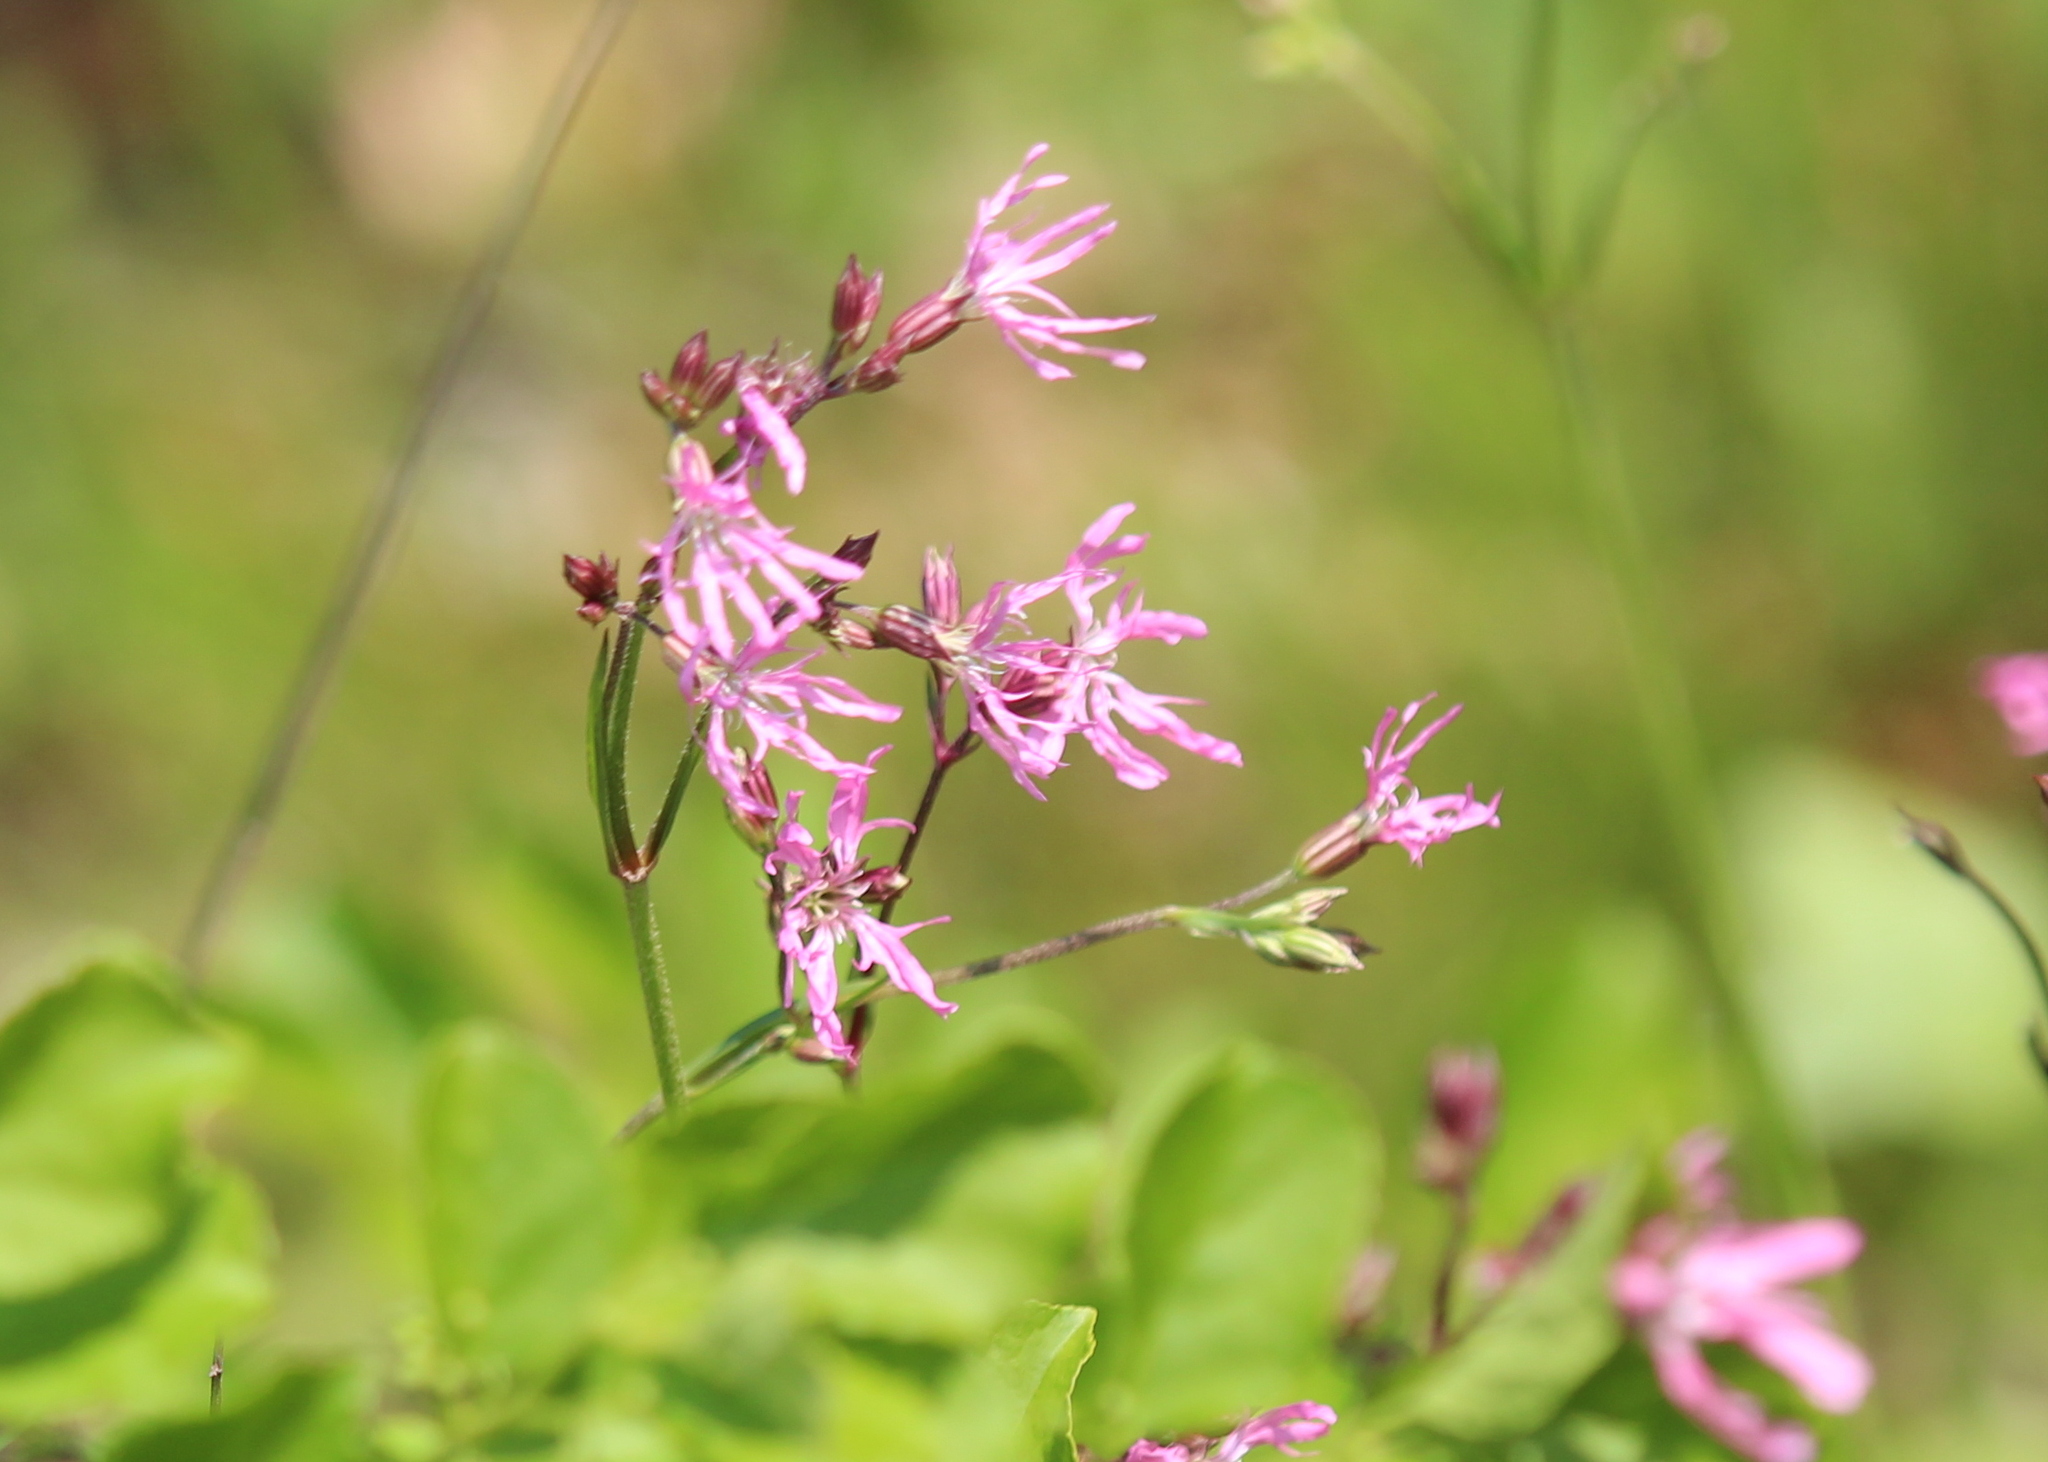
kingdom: Plantae
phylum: Tracheophyta
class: Magnoliopsida
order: Caryophyllales
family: Caryophyllaceae
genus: Silene
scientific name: Silene flos-cuculi
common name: Ragged-robin
